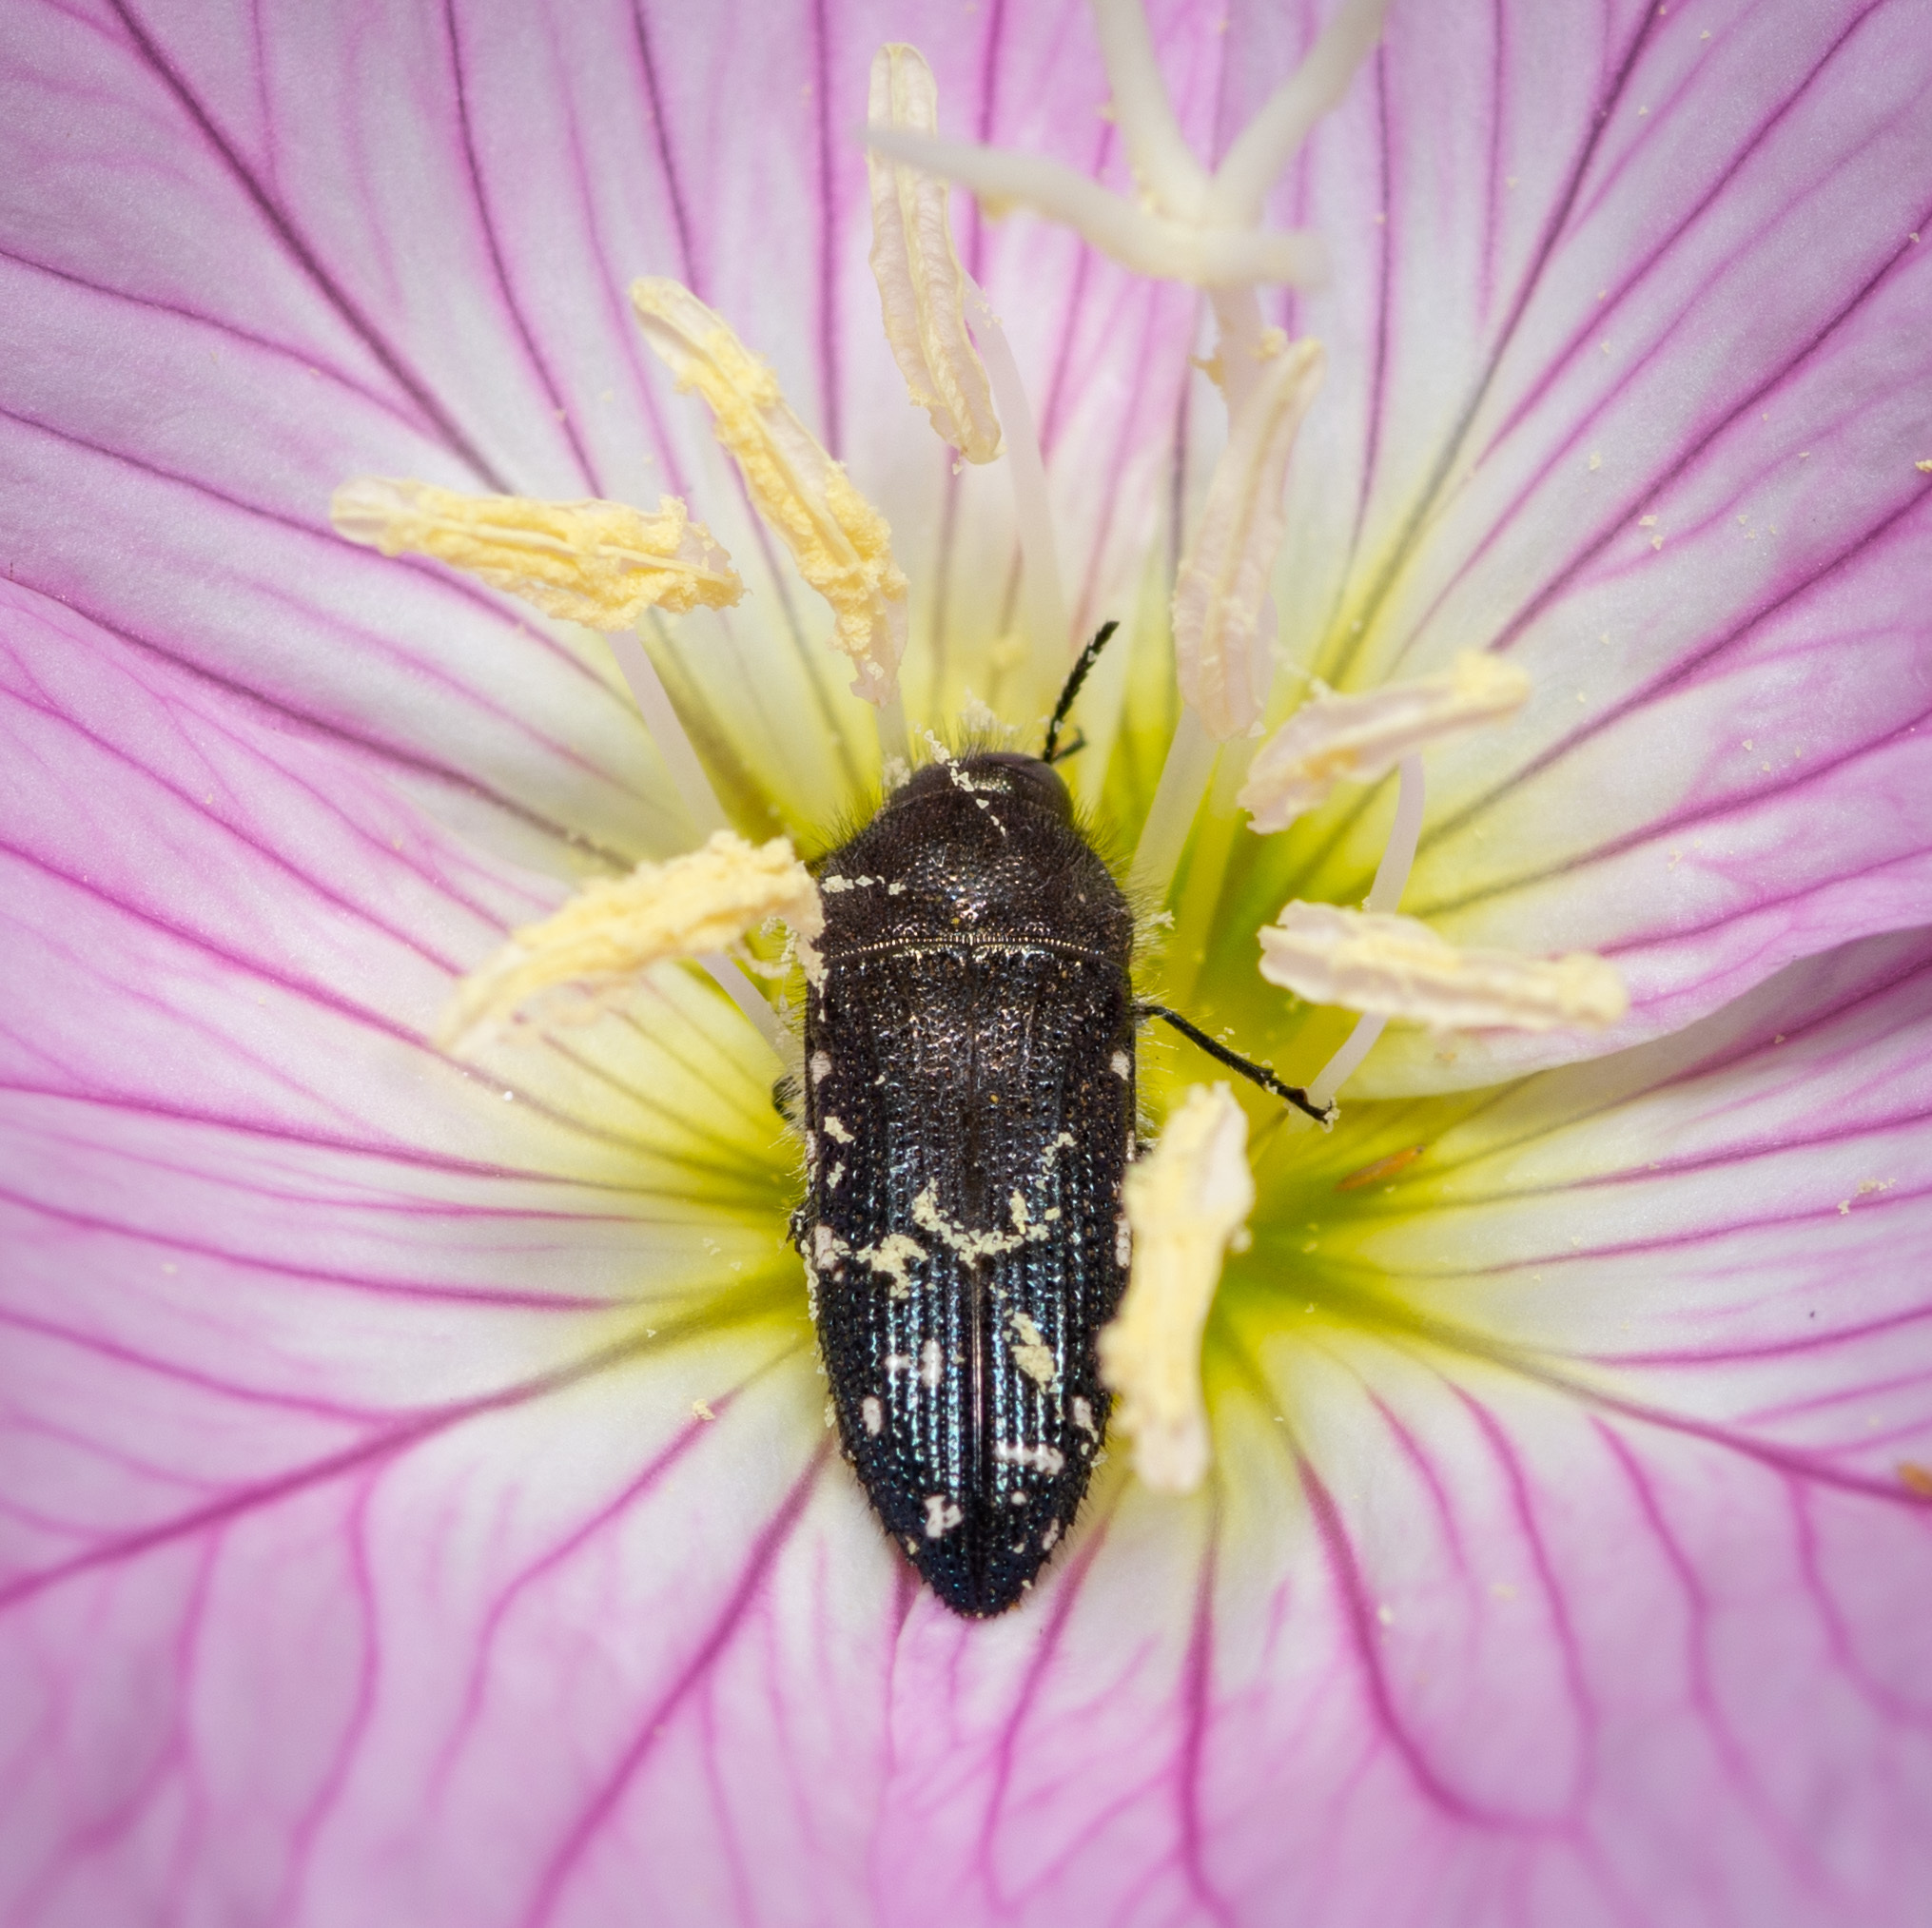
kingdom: Animalia
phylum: Arthropoda
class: Insecta
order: Coleoptera
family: Buprestidae
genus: Acmaeodera
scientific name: Acmaeodera ornatoides
